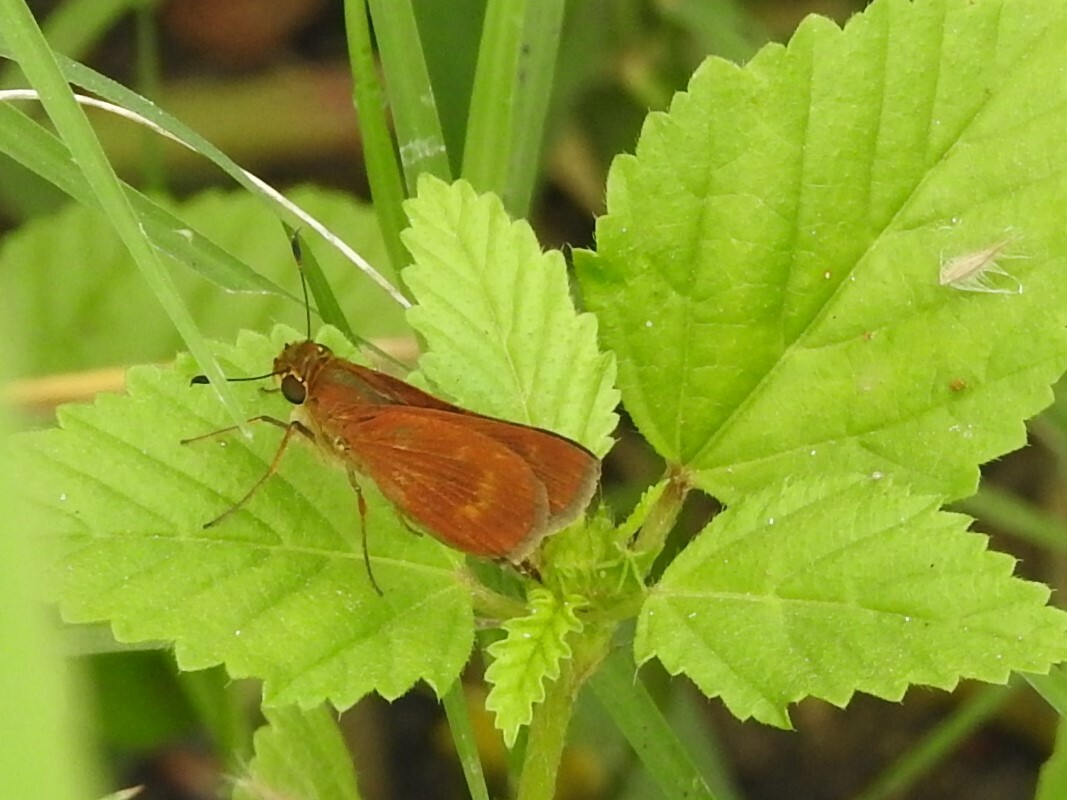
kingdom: Animalia
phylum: Arthropoda
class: Insecta
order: Lepidoptera
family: Hesperiidae
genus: Polites
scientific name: Polites otho
